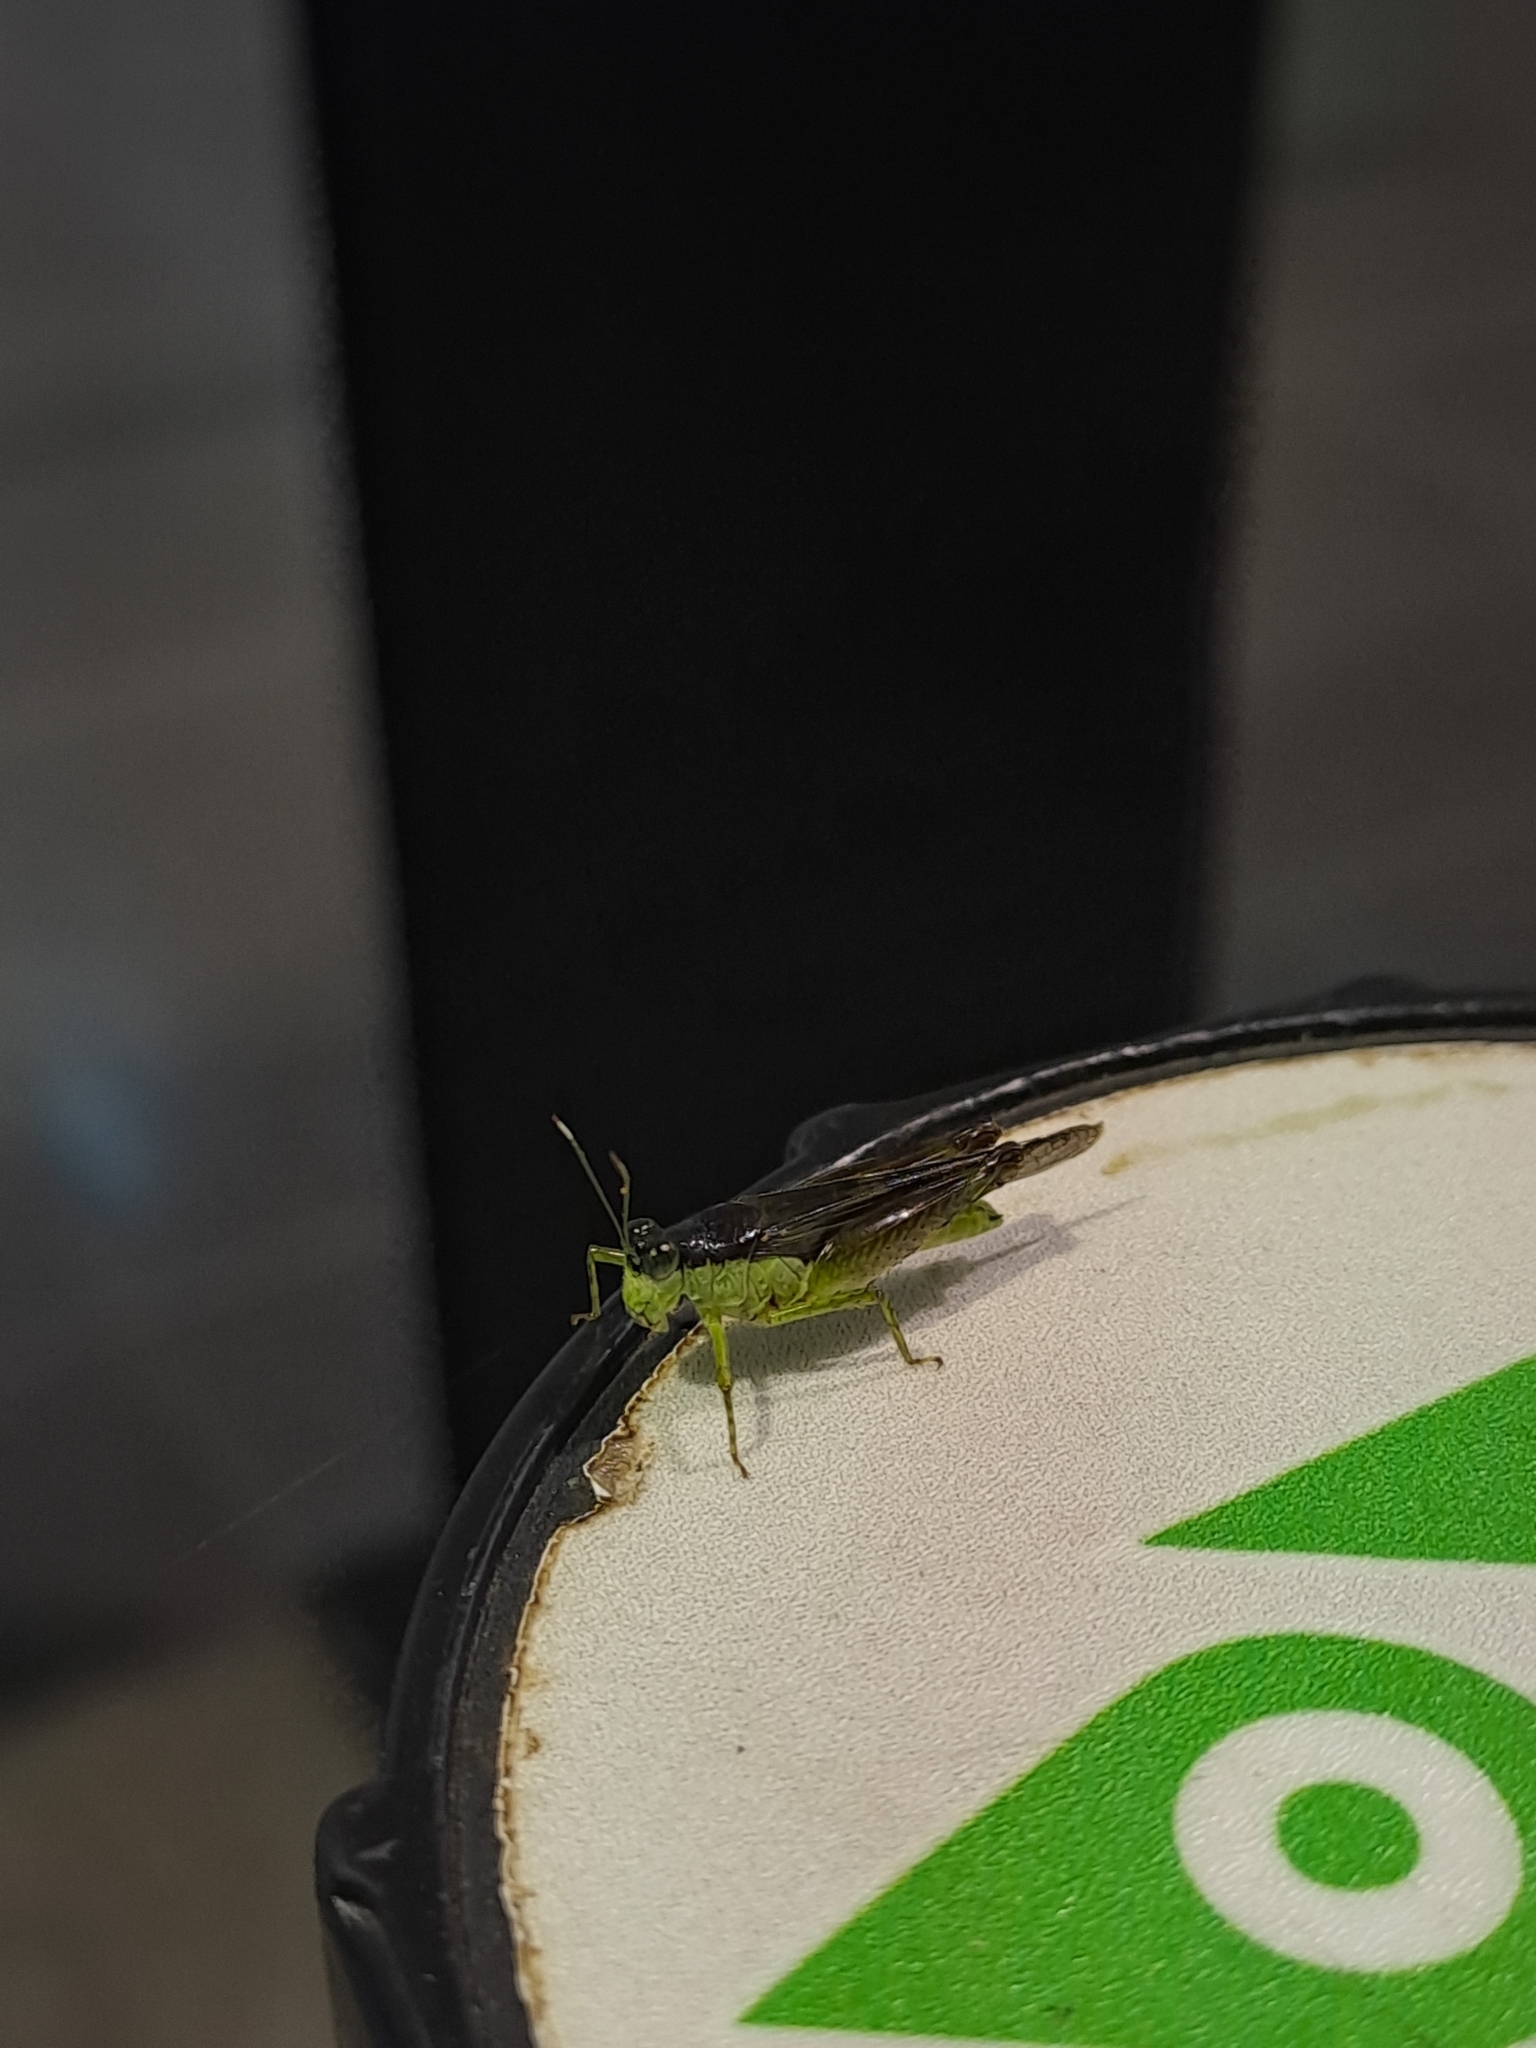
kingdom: Animalia
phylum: Arthropoda
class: Insecta
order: Orthoptera
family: Acrididae
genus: Paulinia
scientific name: Paulinia acuminata
